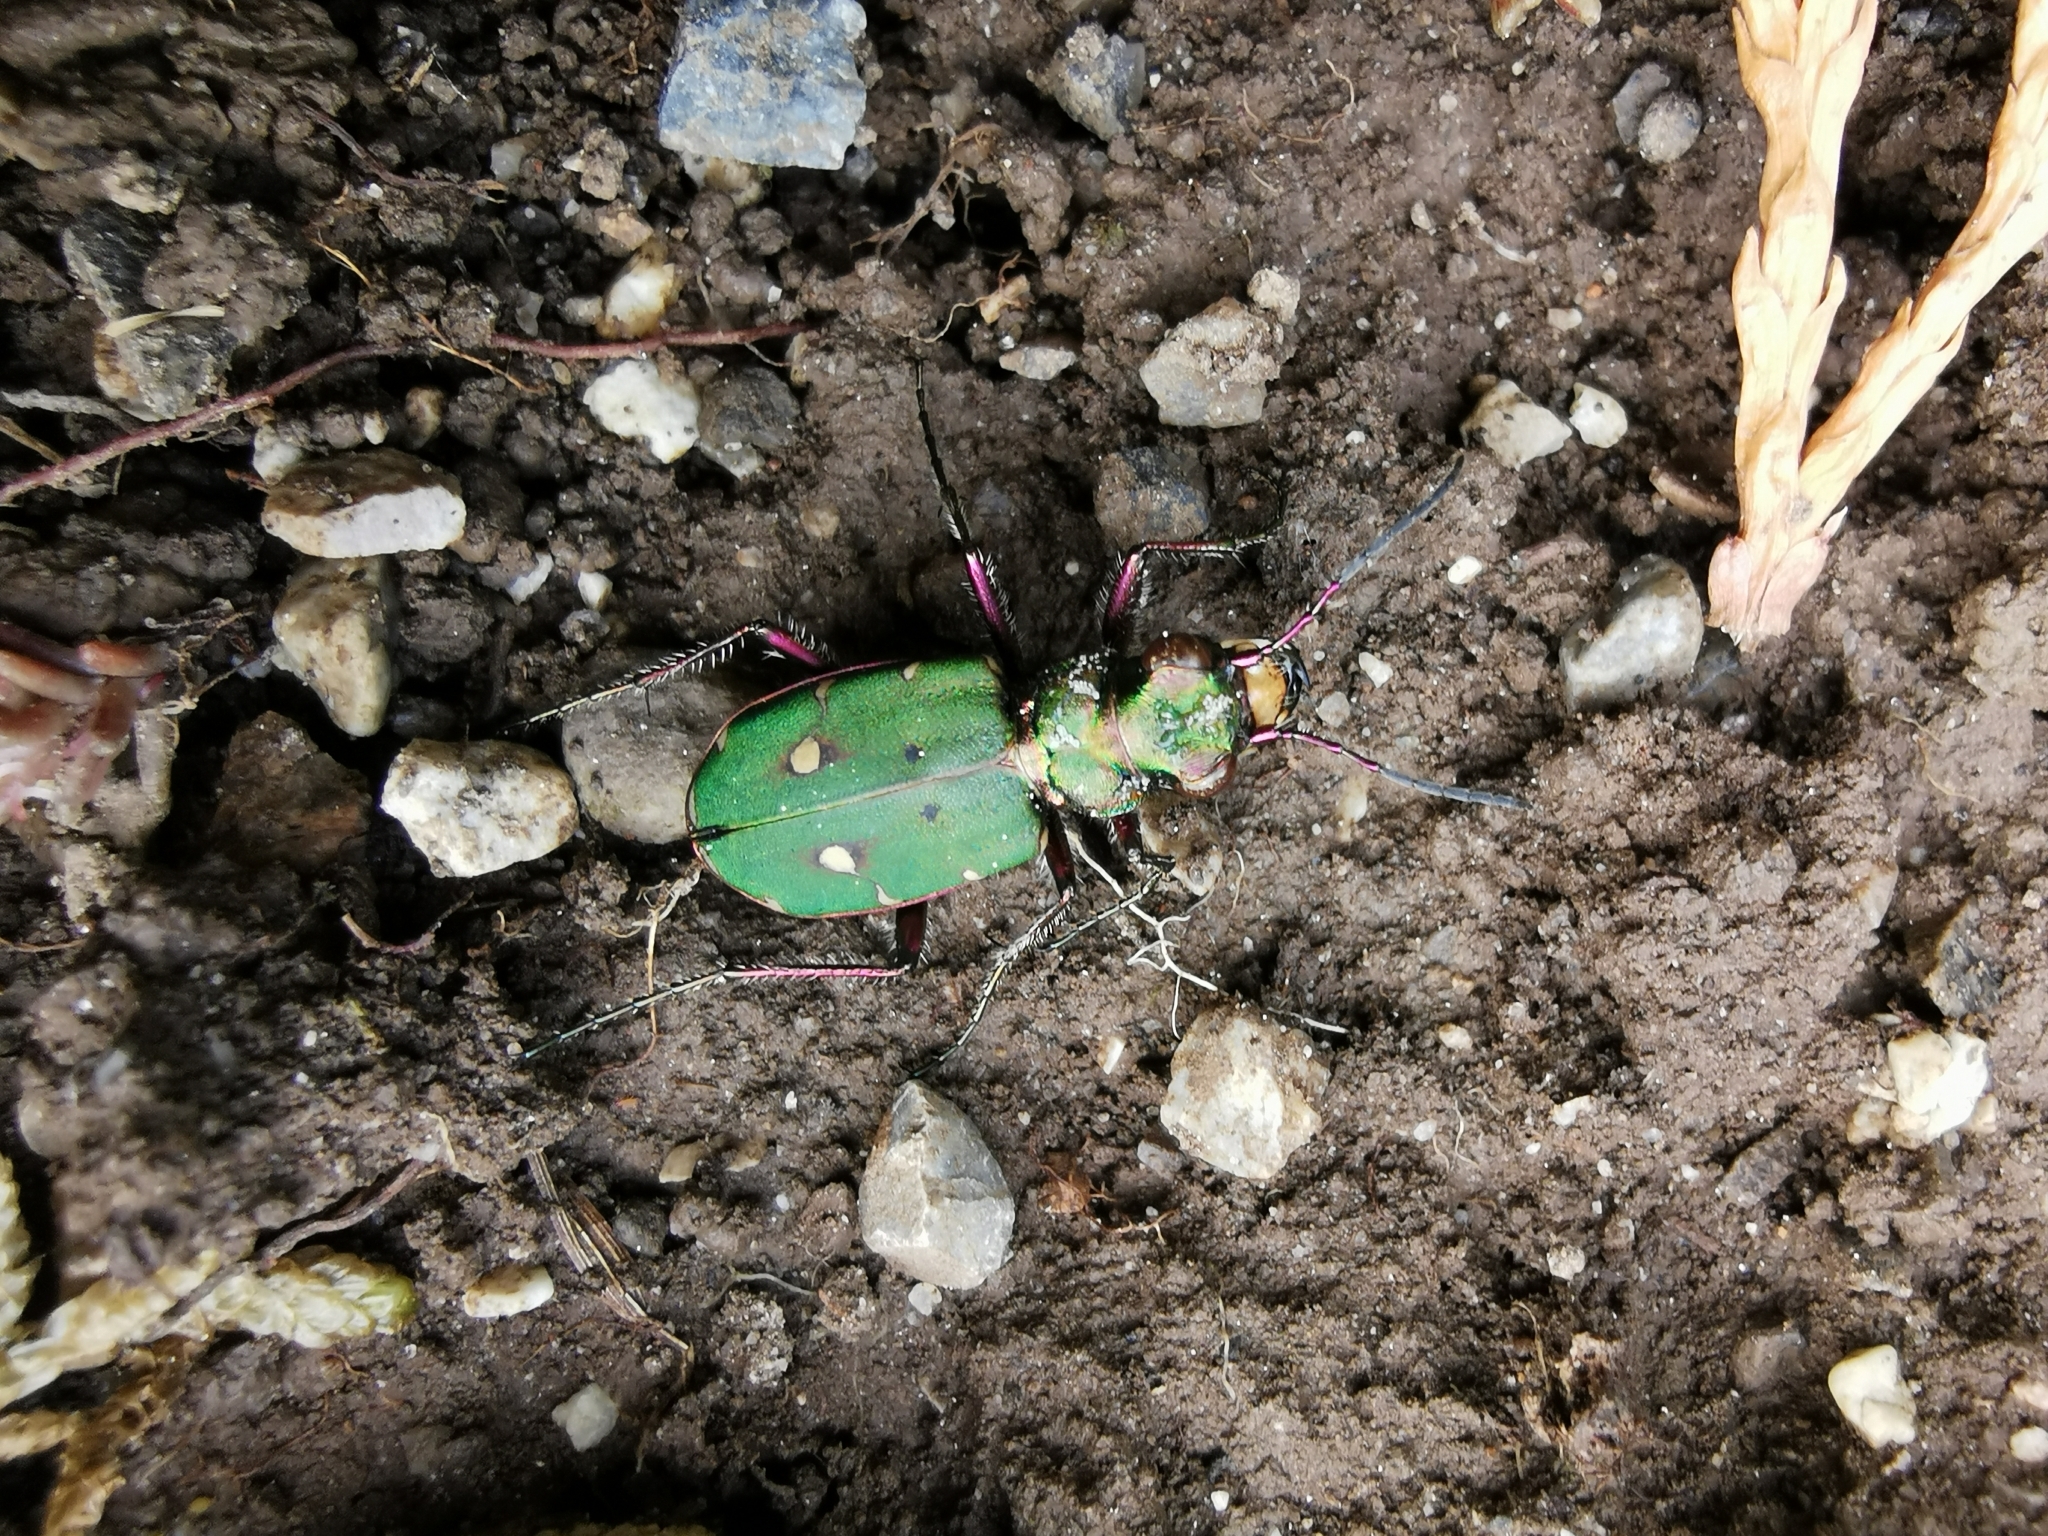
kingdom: Animalia
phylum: Arthropoda
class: Insecta
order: Coleoptera
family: Carabidae
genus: Cicindela
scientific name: Cicindela campestris
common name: Common tiger beetle
